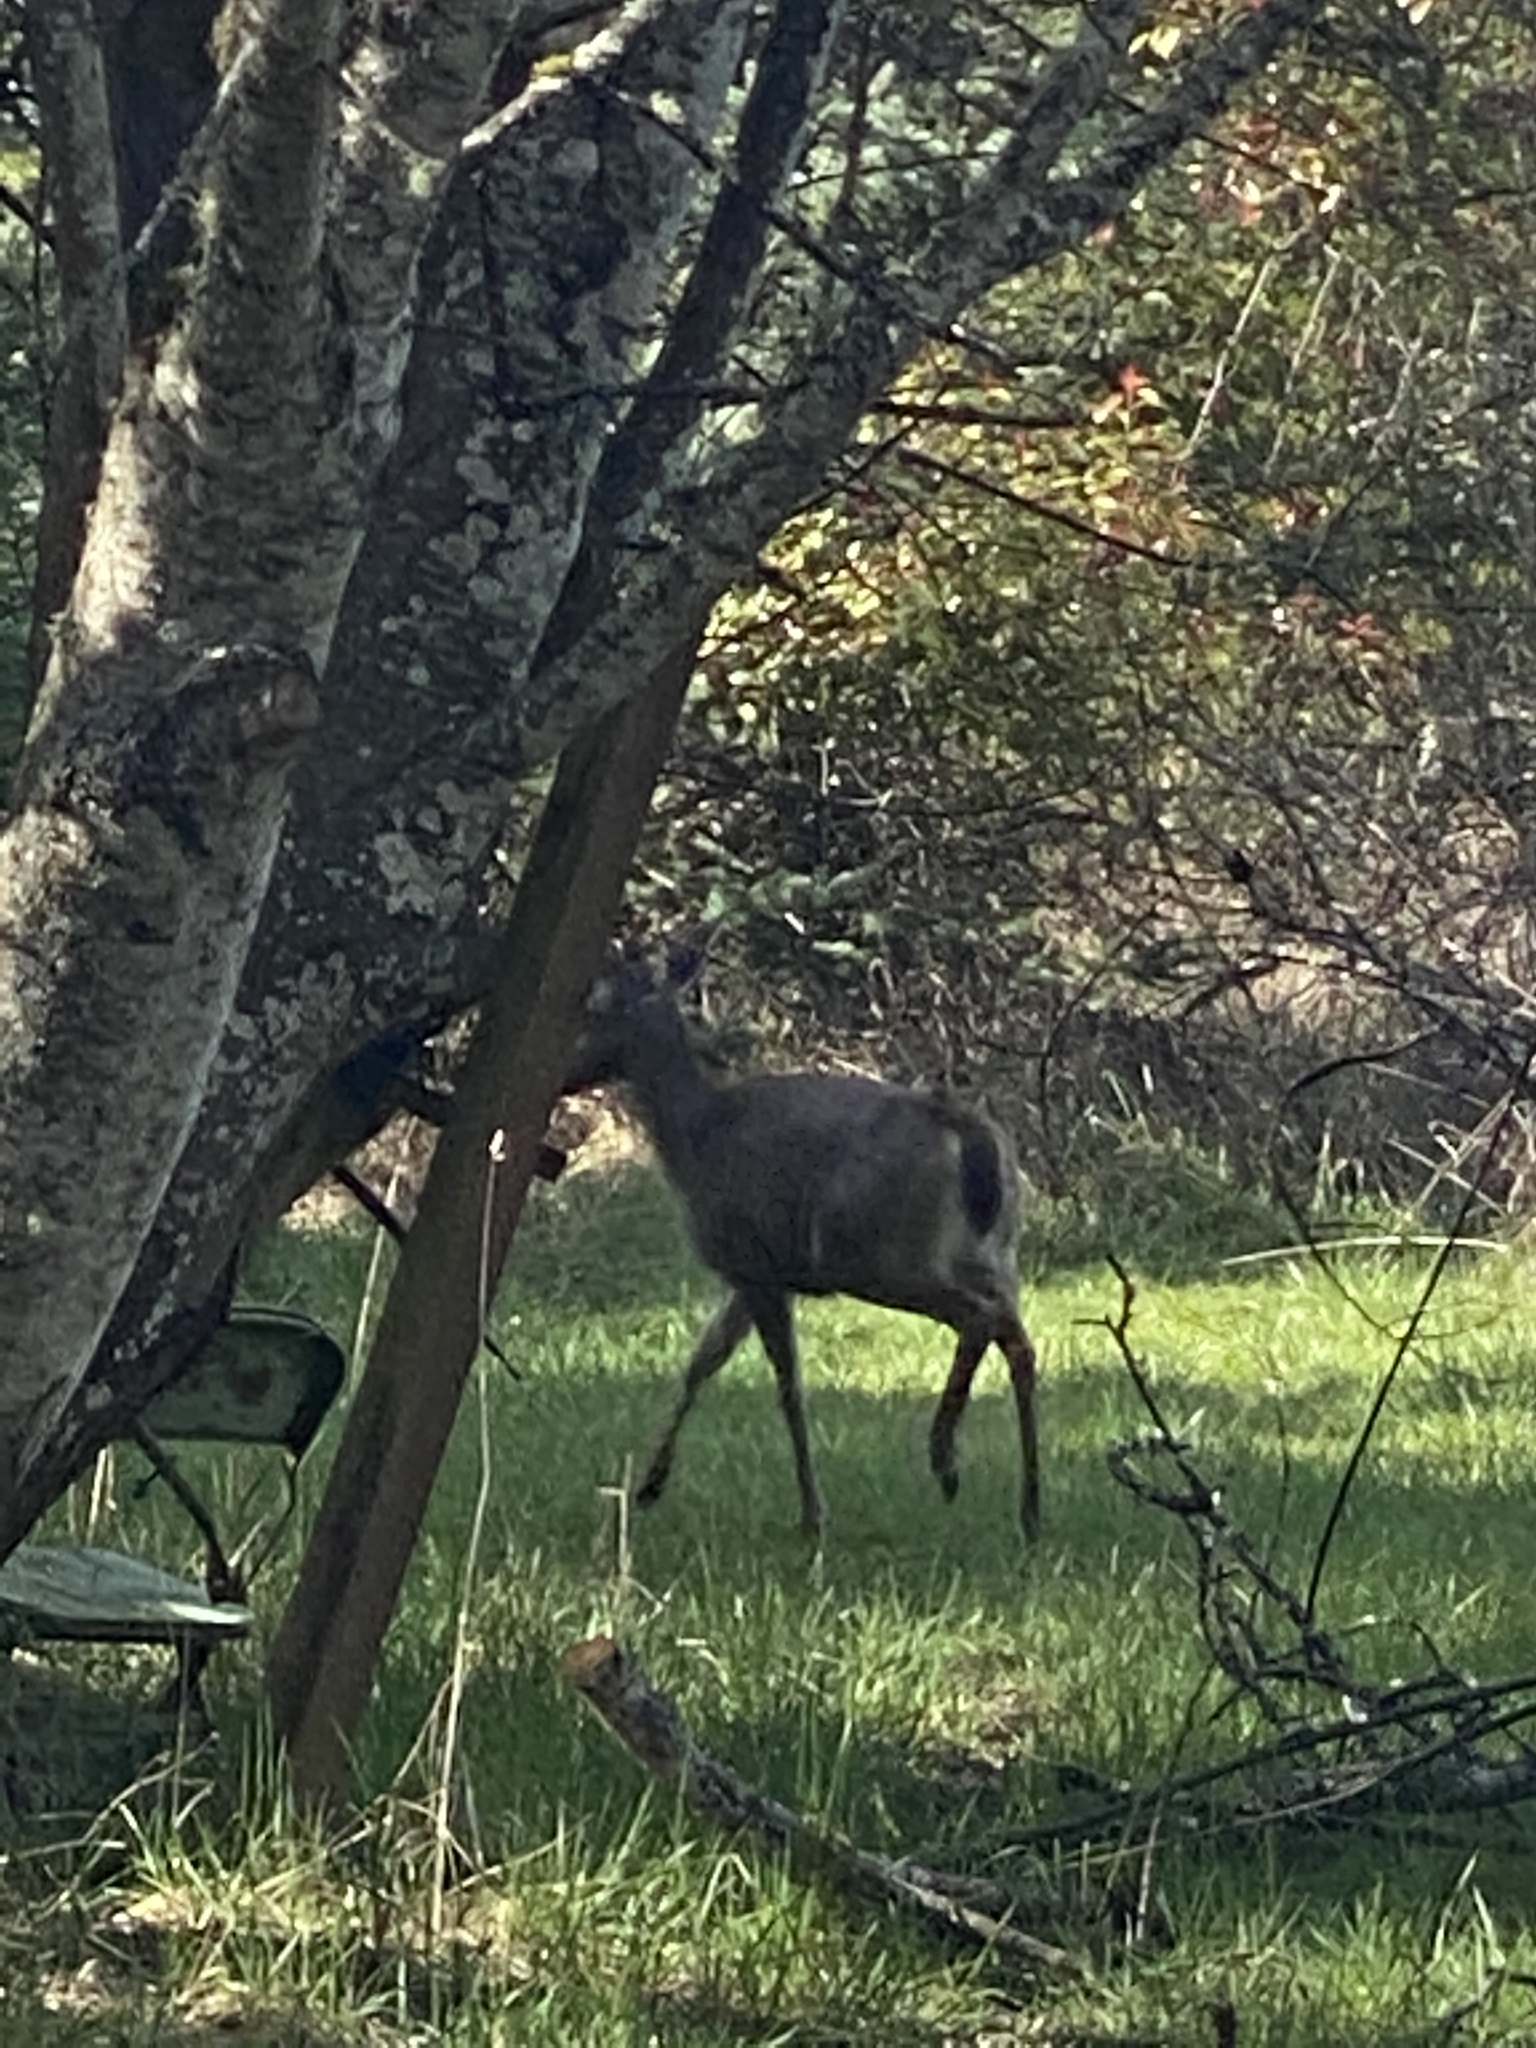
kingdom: Animalia
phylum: Chordata
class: Mammalia
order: Artiodactyla
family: Cervidae
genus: Odocoileus
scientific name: Odocoileus hemionus
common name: Mule deer
